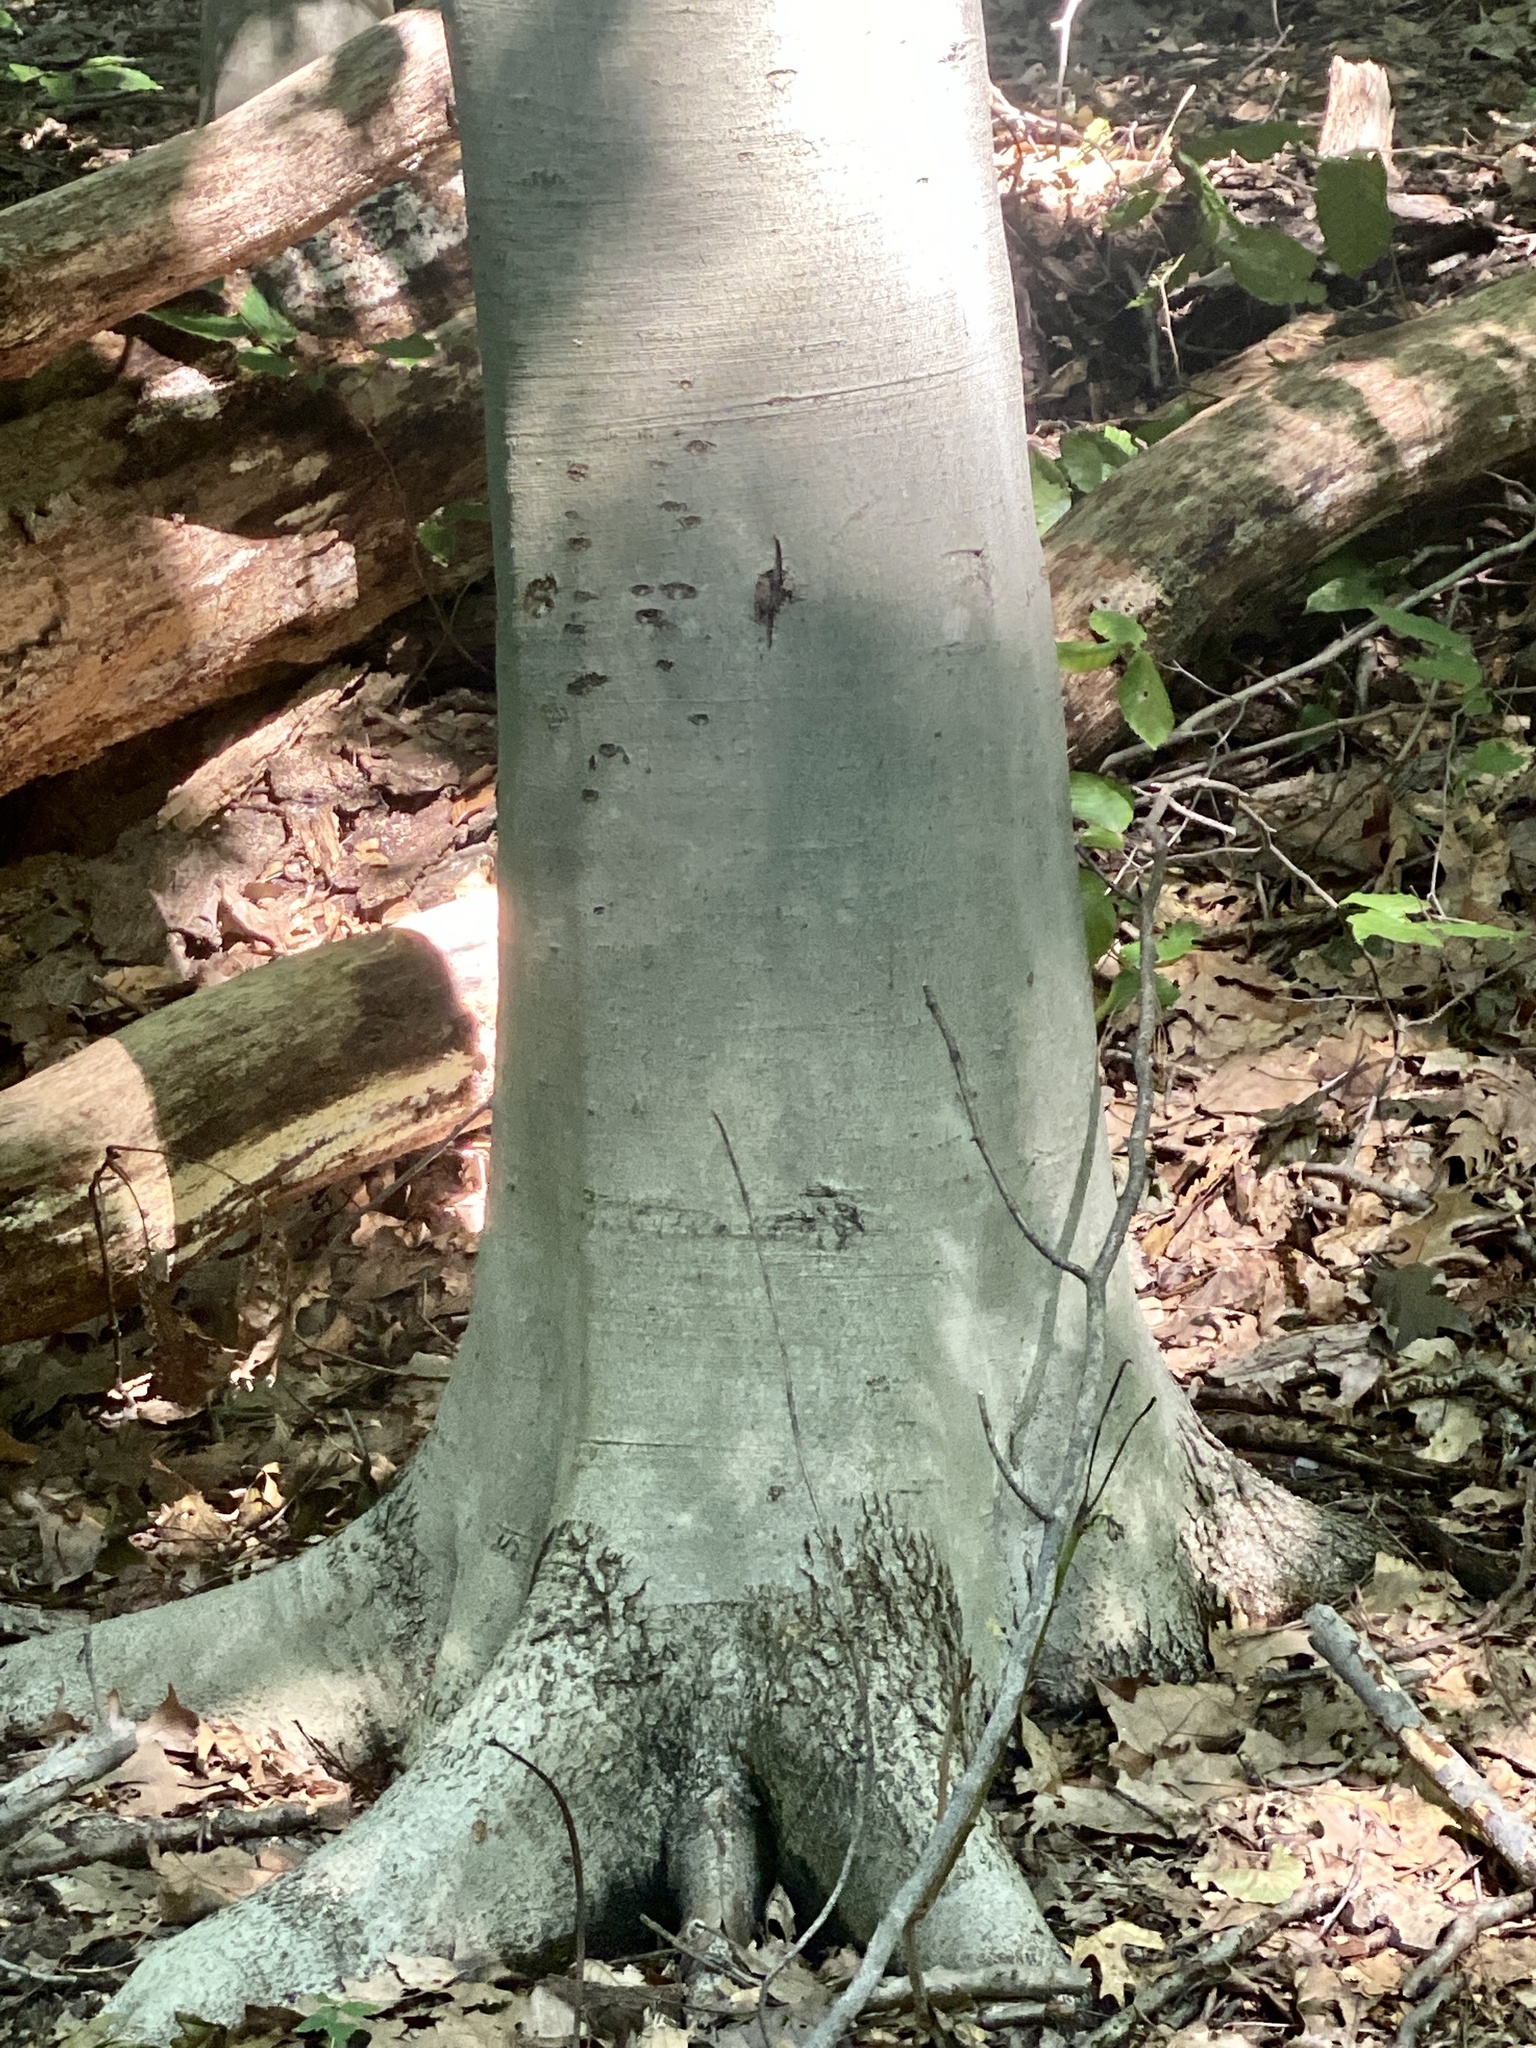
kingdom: Plantae
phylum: Tracheophyta
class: Magnoliopsida
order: Fagales
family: Fagaceae
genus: Fagus
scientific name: Fagus grandifolia
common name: American beech
